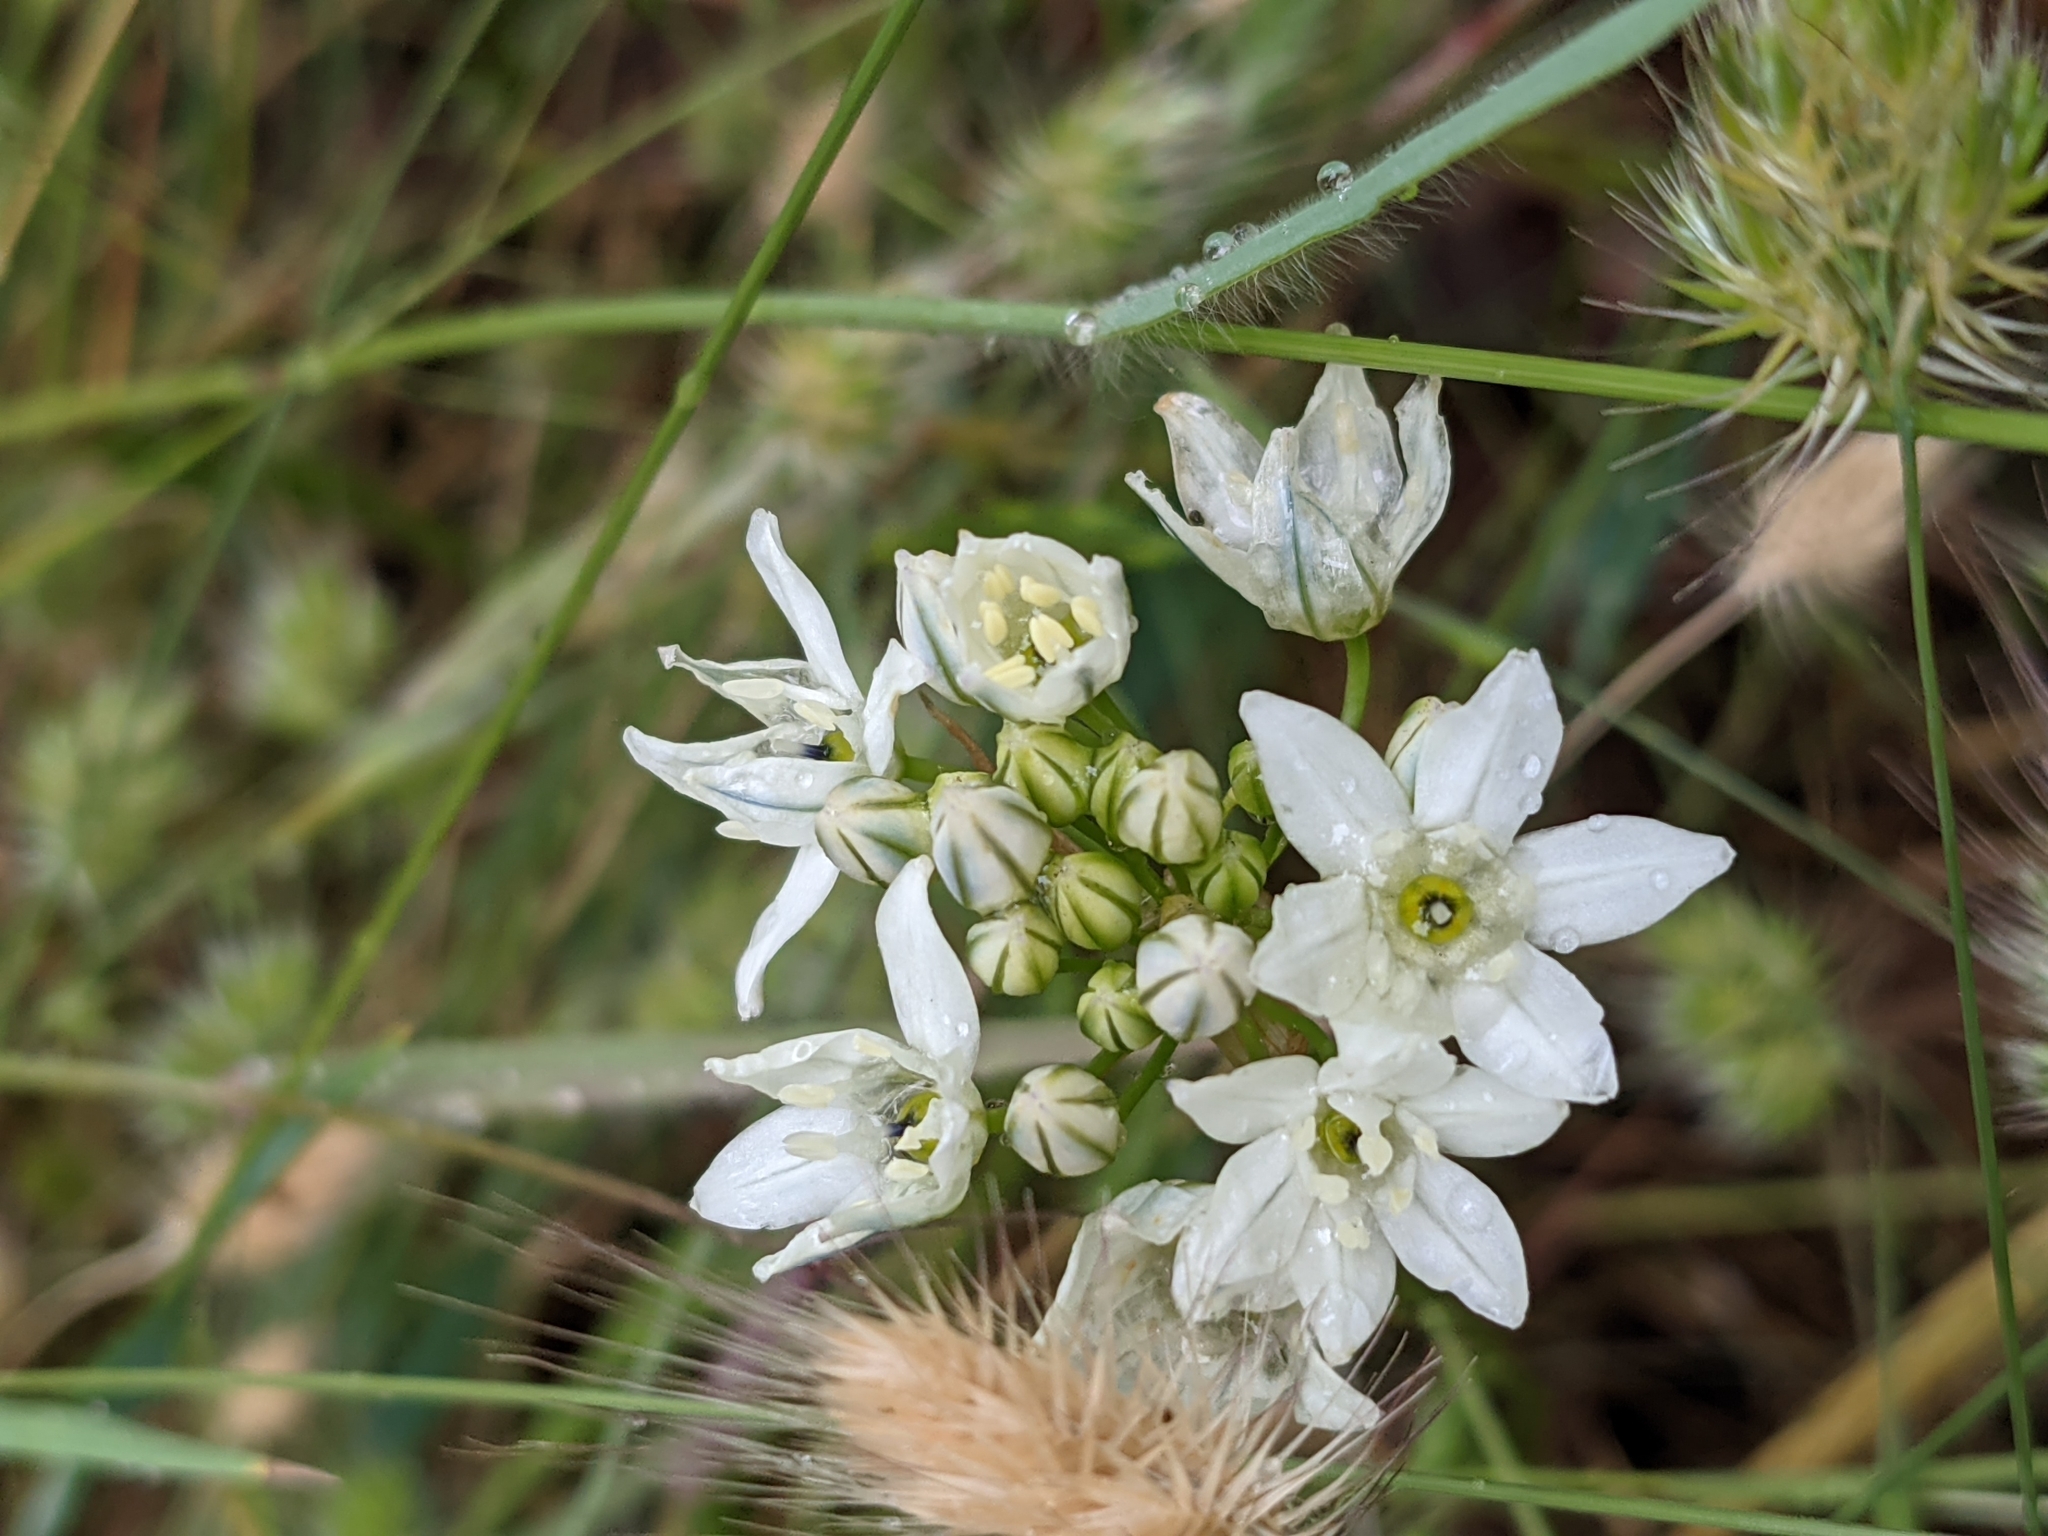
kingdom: Plantae
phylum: Tracheophyta
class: Liliopsida
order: Asparagales
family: Asparagaceae
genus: Triteleia
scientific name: Triteleia hyacinthina
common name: White brodiaea
